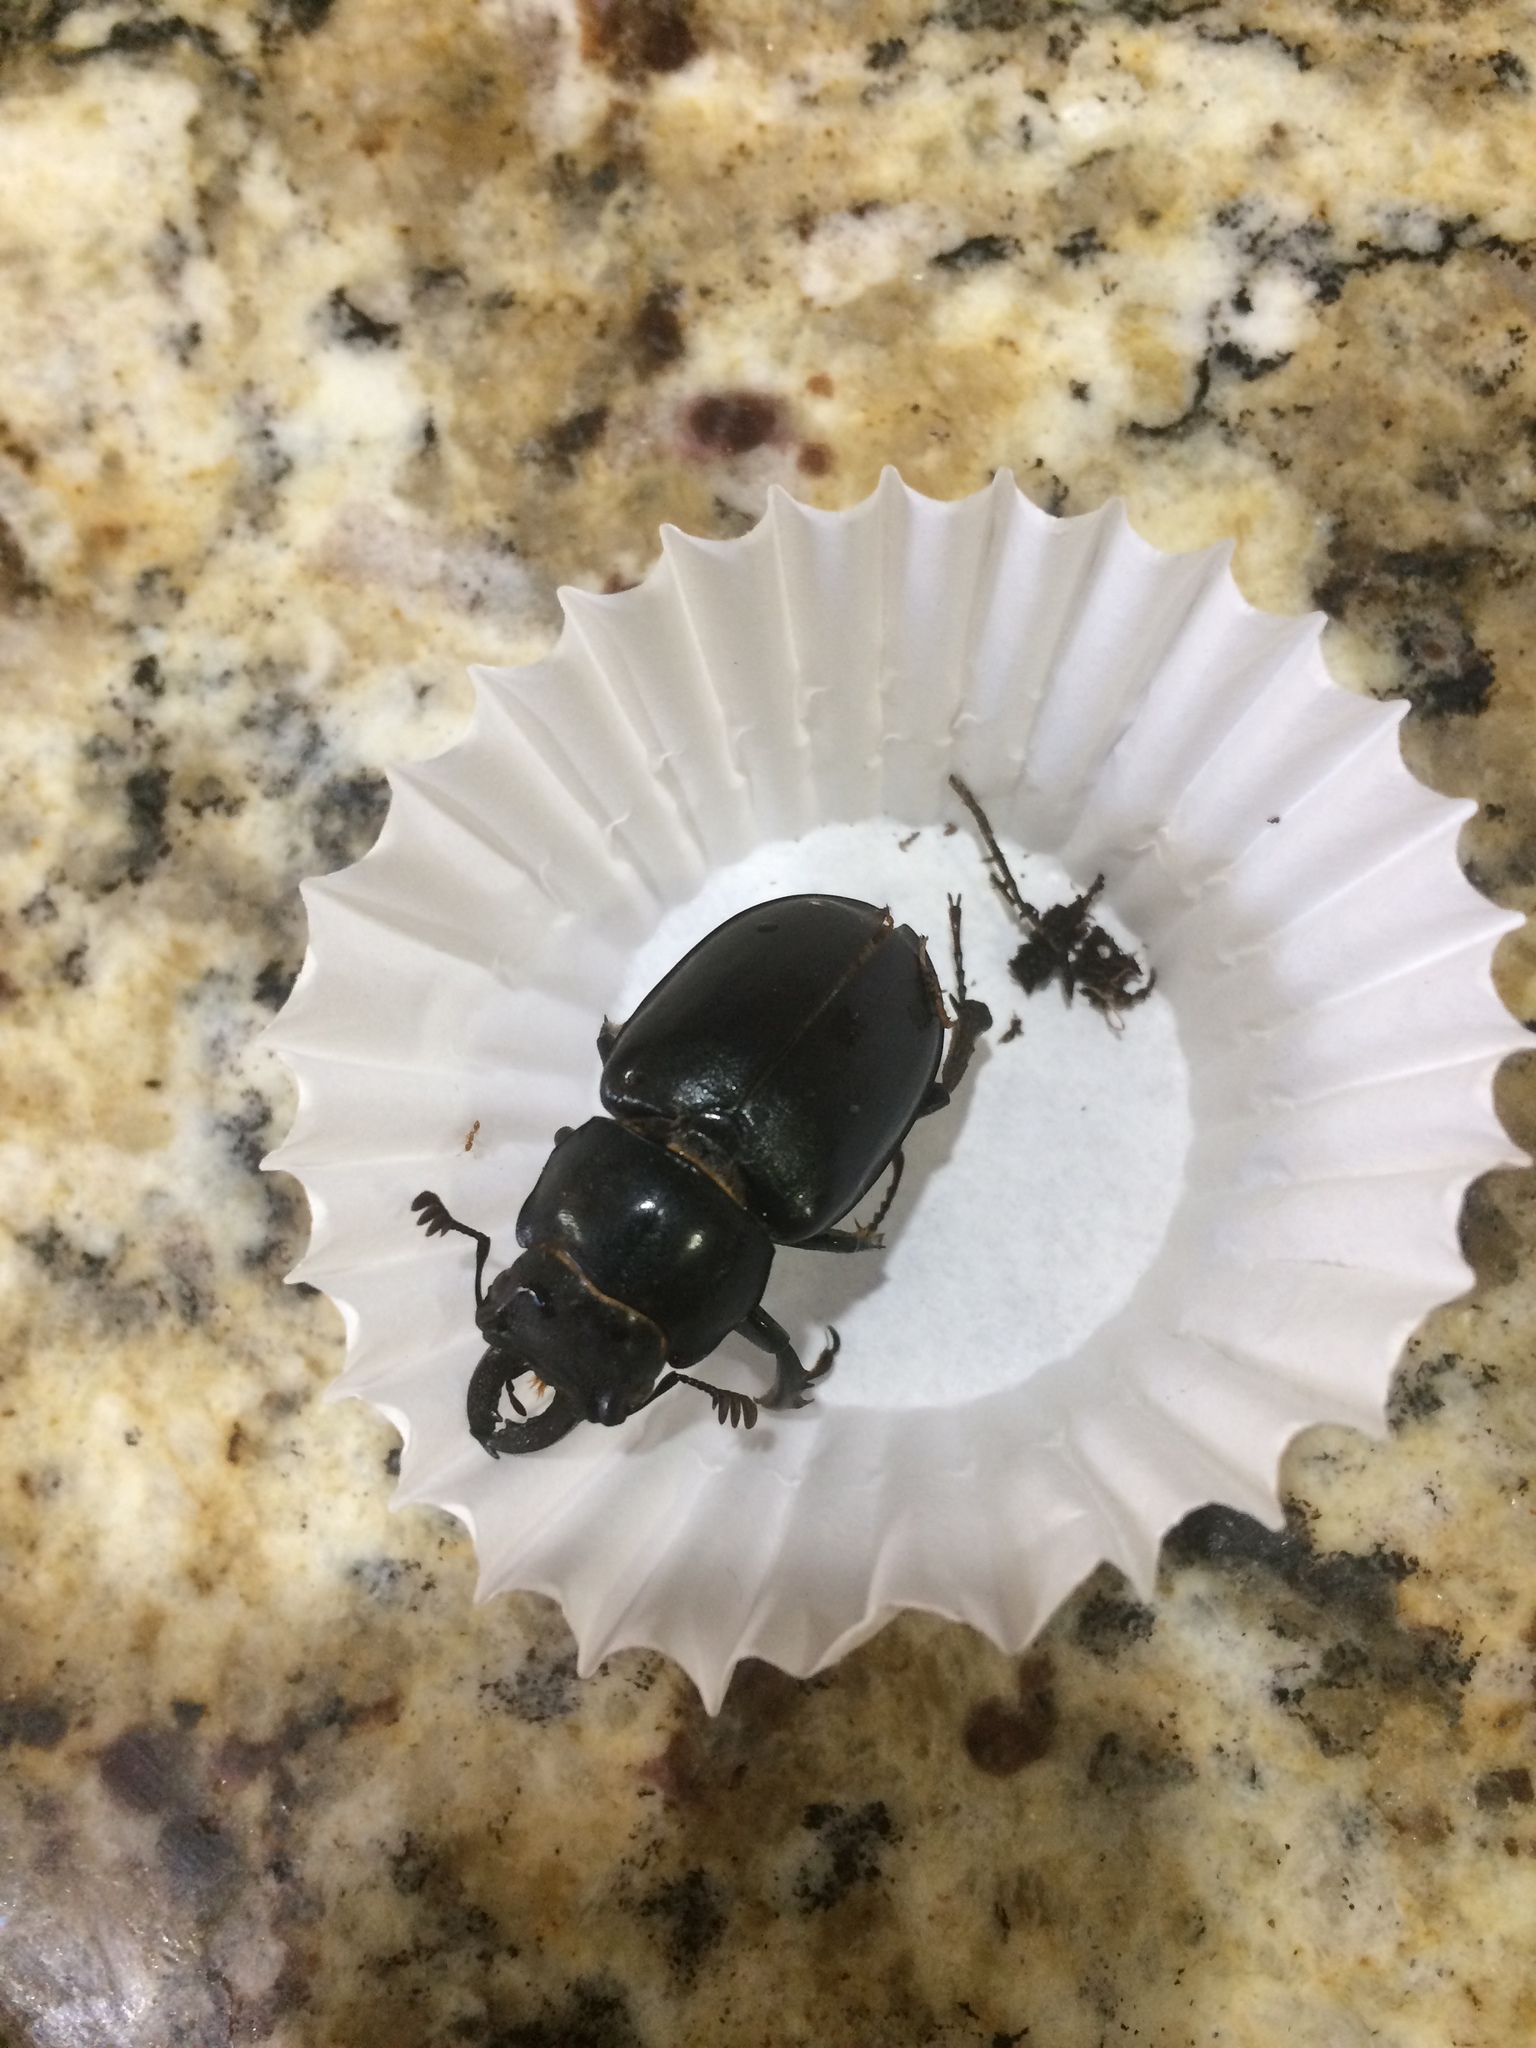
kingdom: Animalia
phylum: Arthropoda
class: Insecta
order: Coleoptera
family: Lucanidae
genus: Lucanus
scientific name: Lucanus placidus
